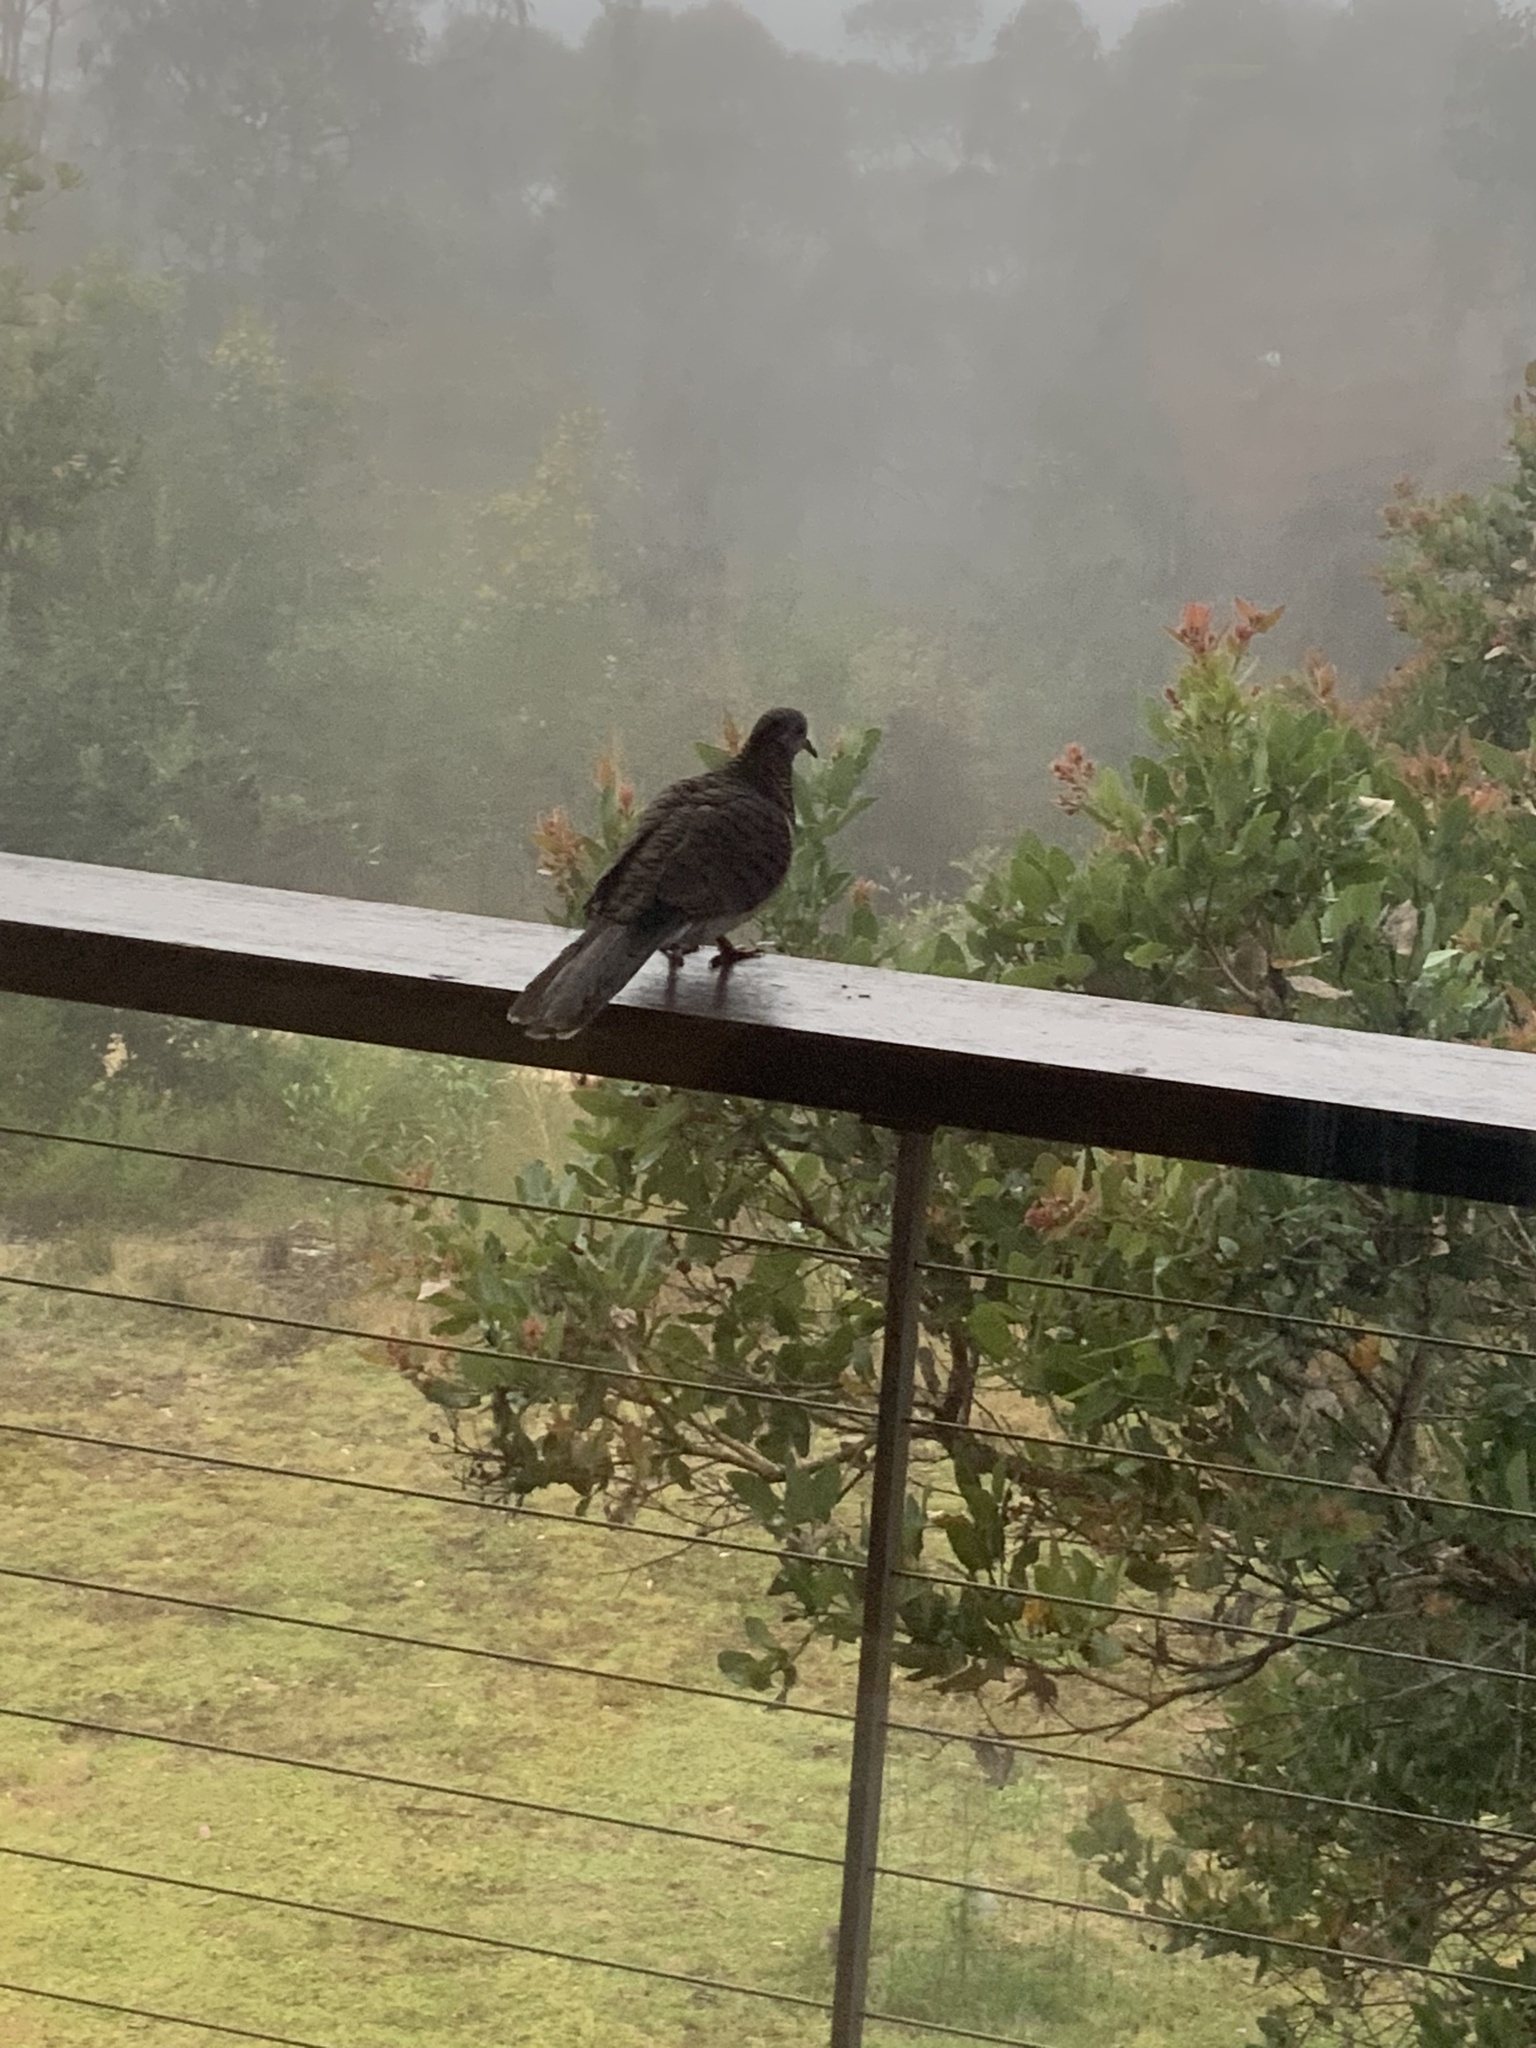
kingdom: Animalia
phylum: Chordata
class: Aves
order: Columbiformes
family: Columbidae
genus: Phaps
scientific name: Phaps chalcoptera
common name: Common bronzewing
